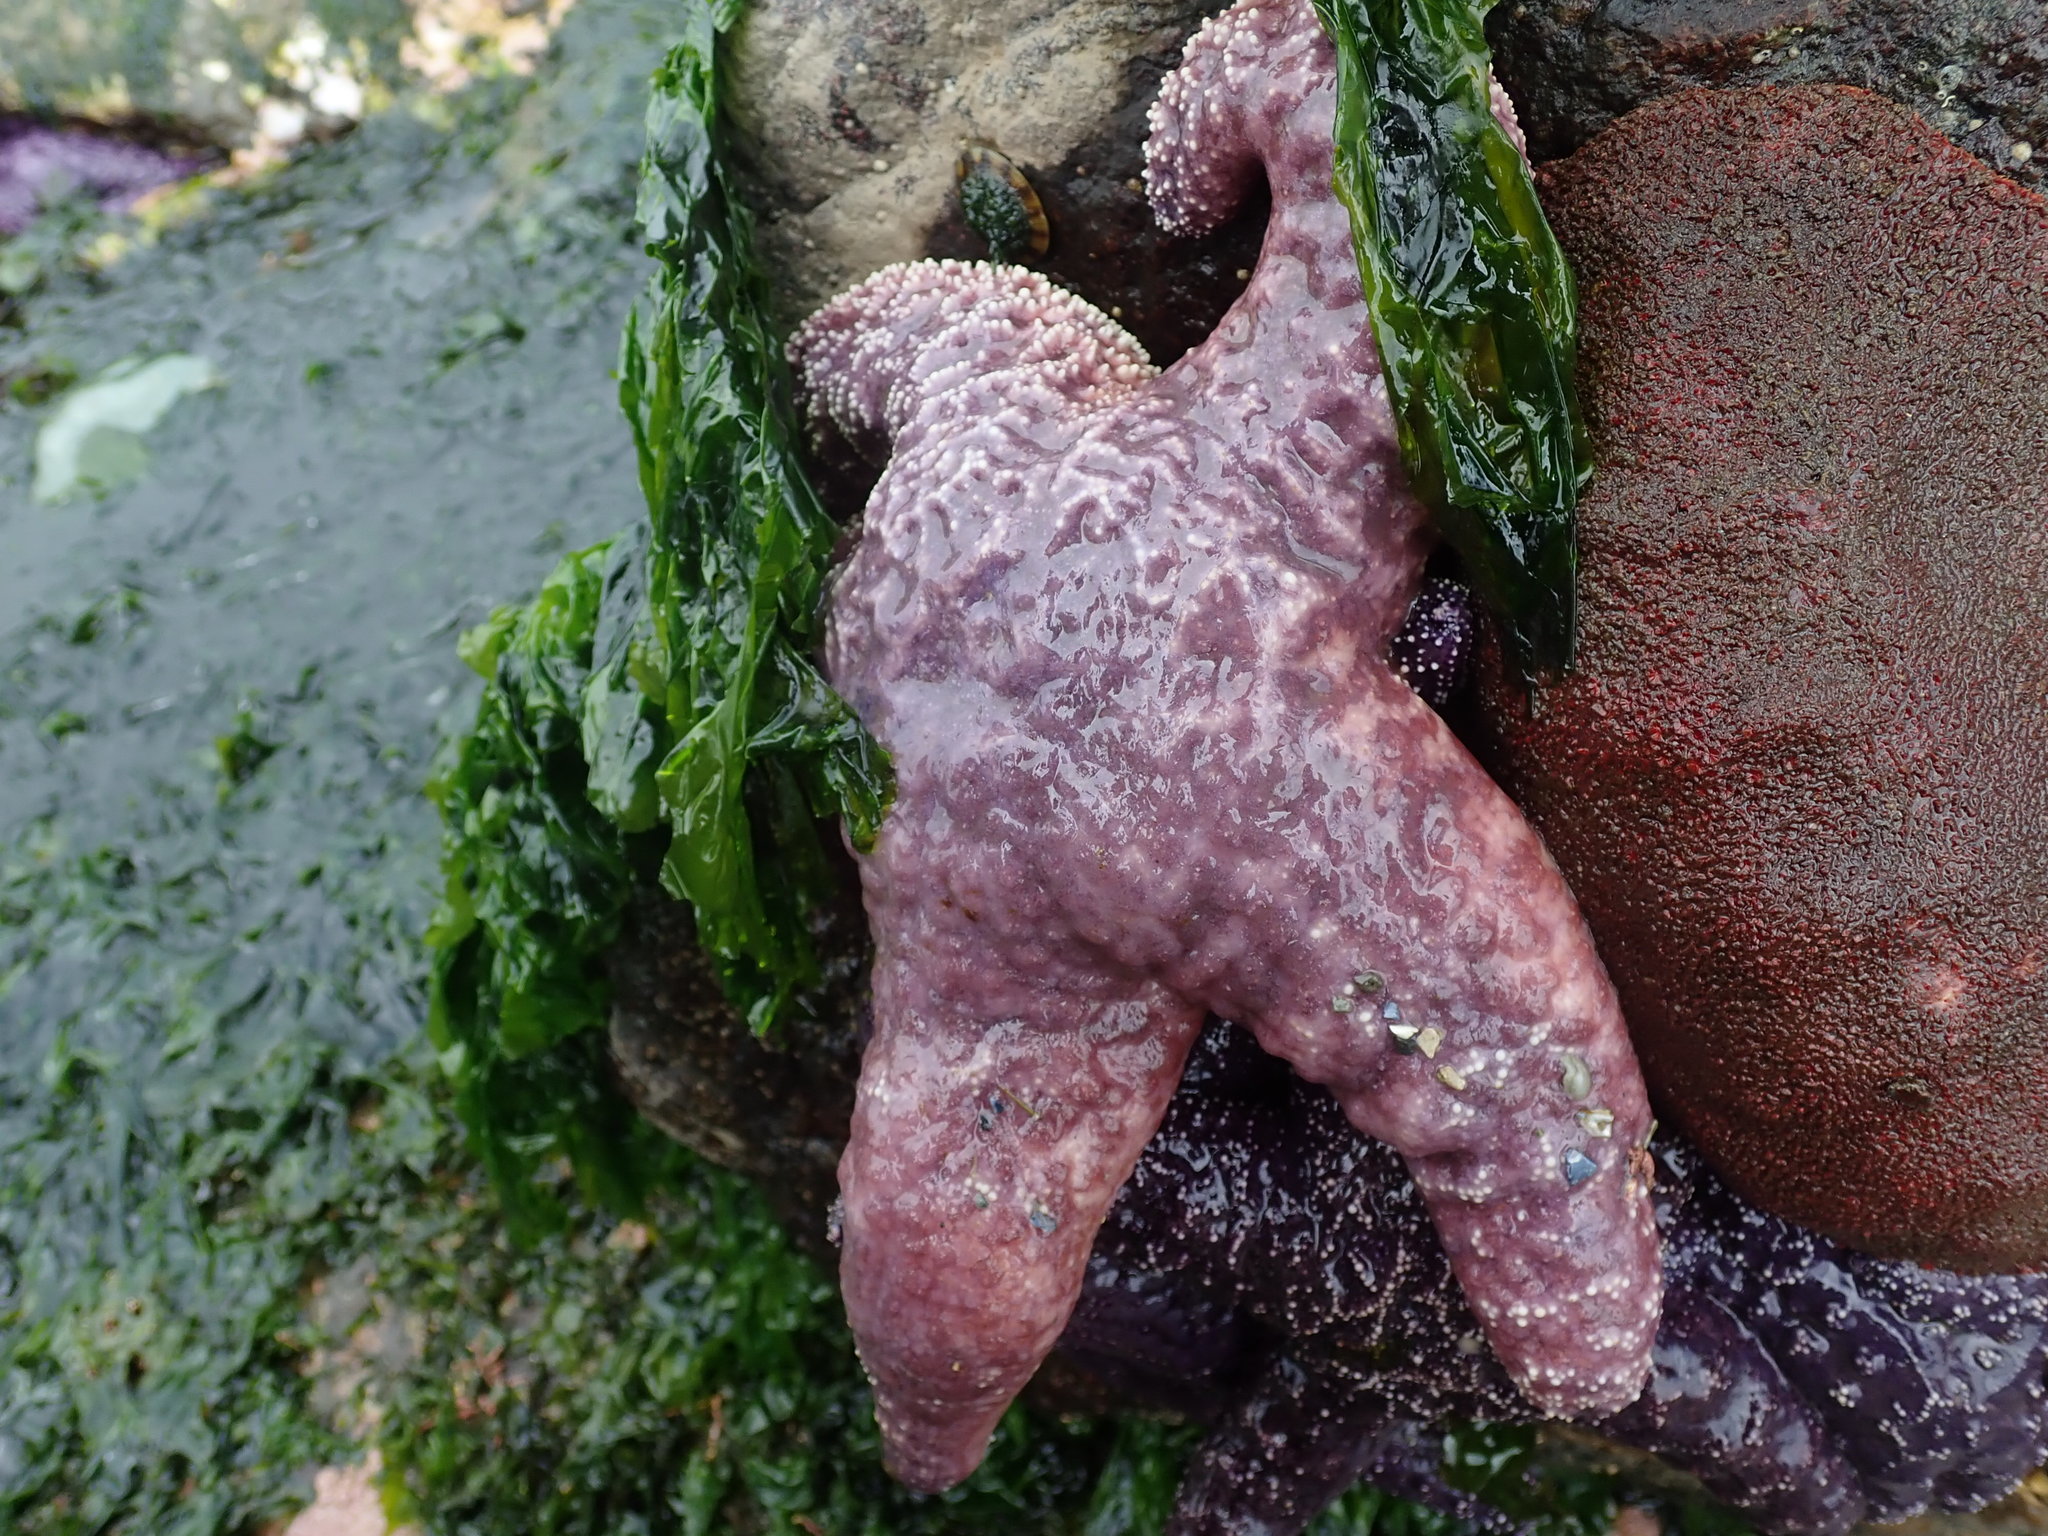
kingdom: Animalia
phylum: Echinodermata
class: Asteroidea
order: Forcipulatida
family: Asteriidae
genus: Pisaster
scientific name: Pisaster ochraceus
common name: Ochre stars
